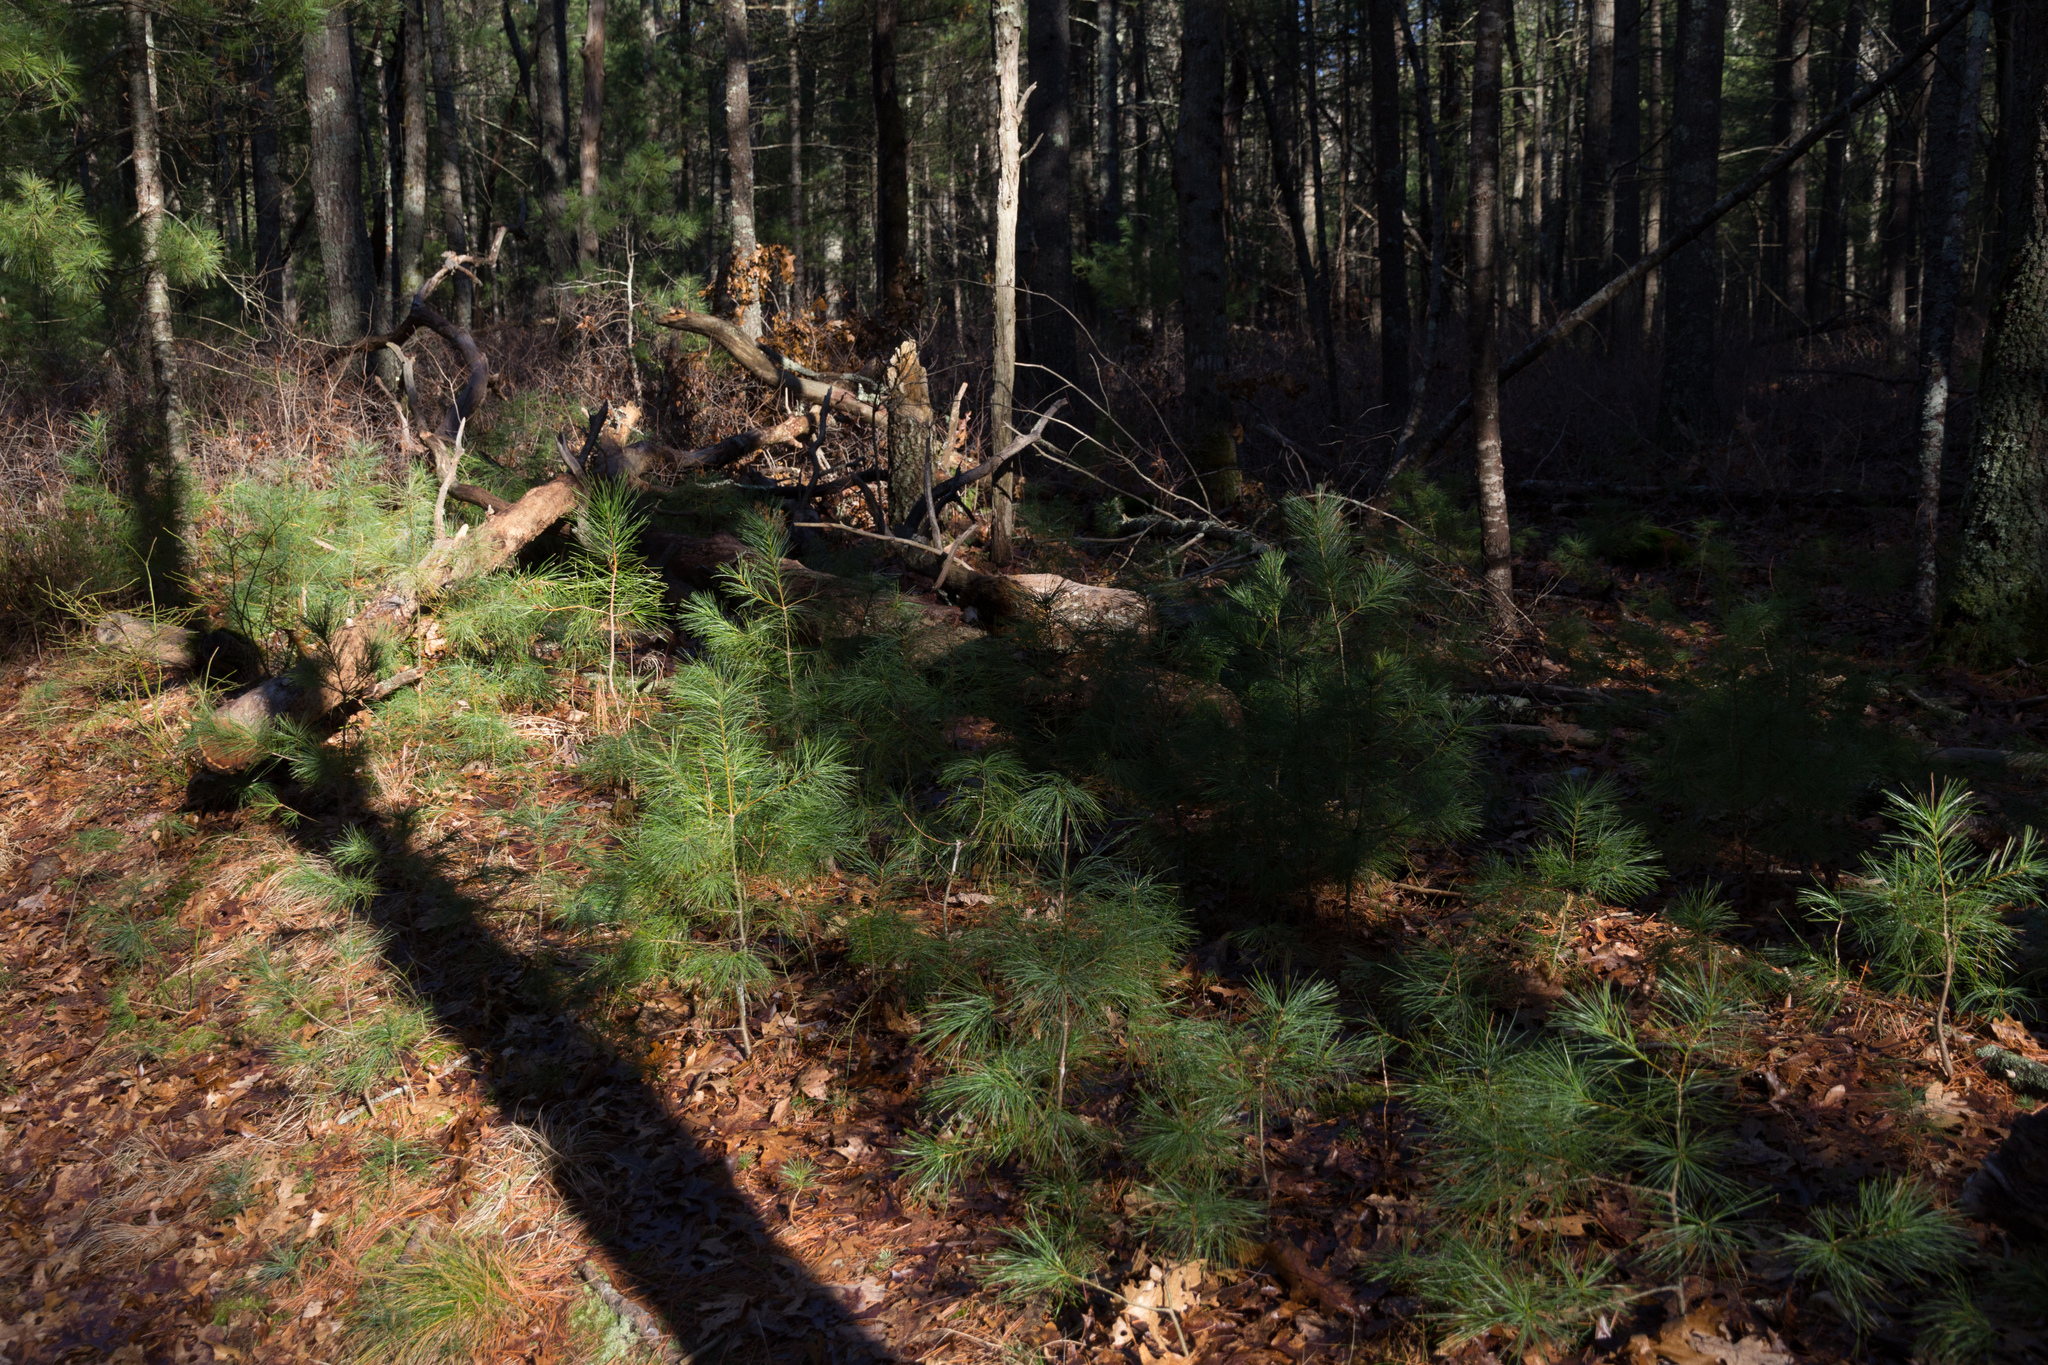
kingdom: Plantae
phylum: Tracheophyta
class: Pinopsida
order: Pinales
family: Pinaceae
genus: Pinus
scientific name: Pinus strobus
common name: Weymouth pine
